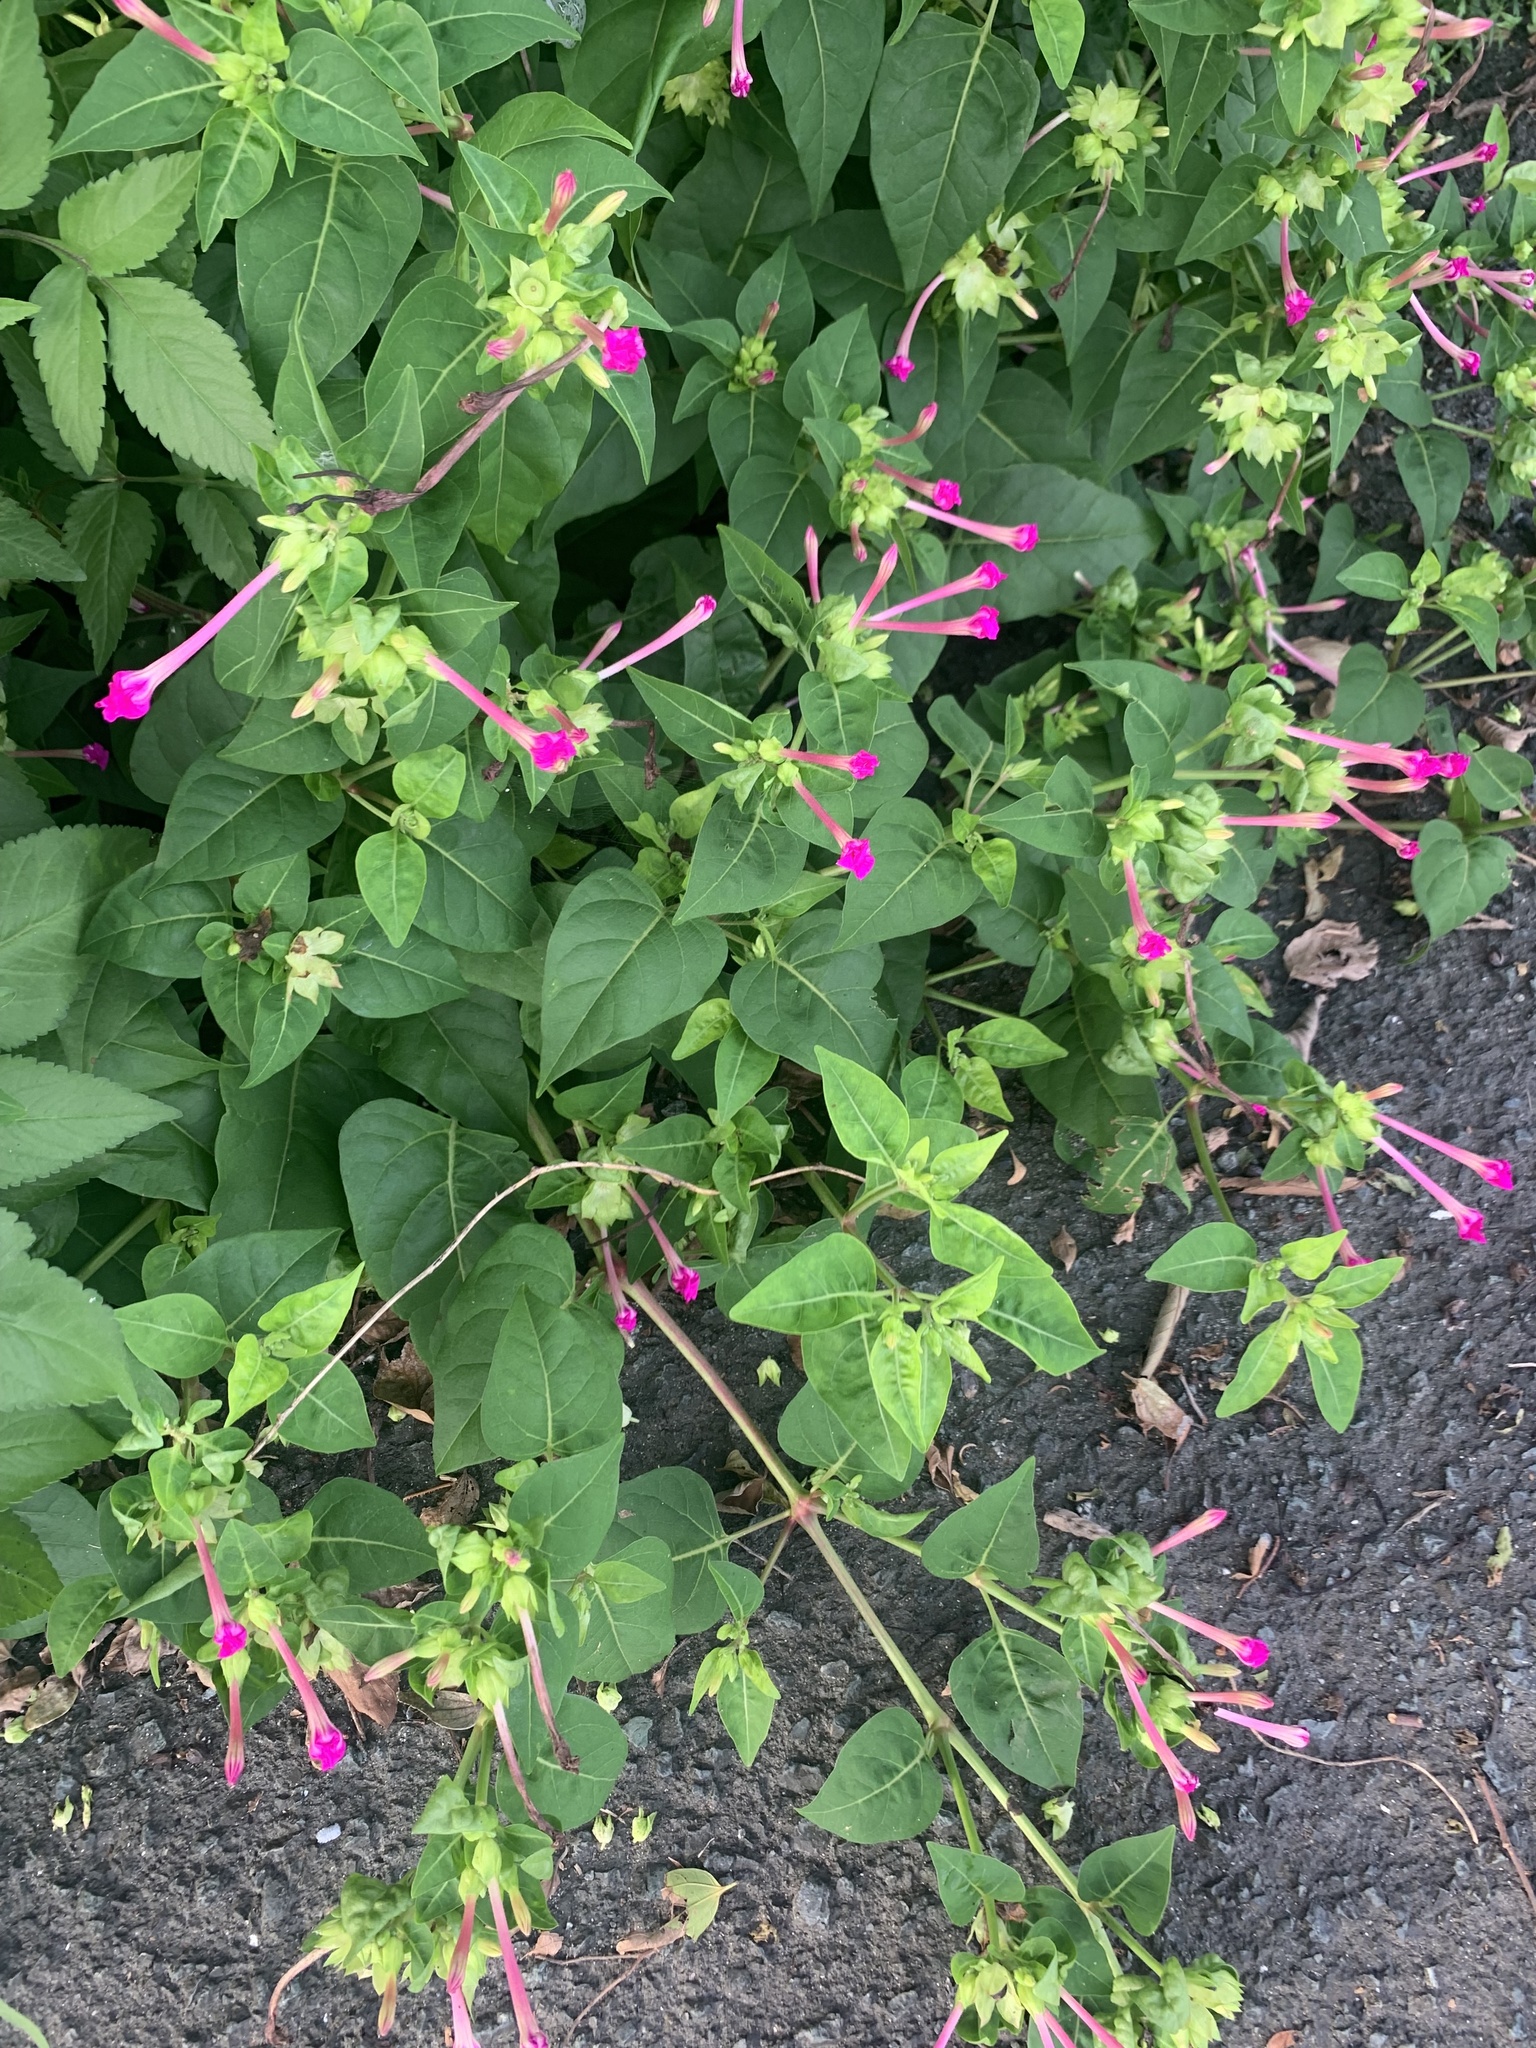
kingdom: Plantae
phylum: Tracheophyta
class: Magnoliopsida
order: Caryophyllales
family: Nyctaginaceae
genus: Mirabilis
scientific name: Mirabilis jalapa
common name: Marvel-of-peru
